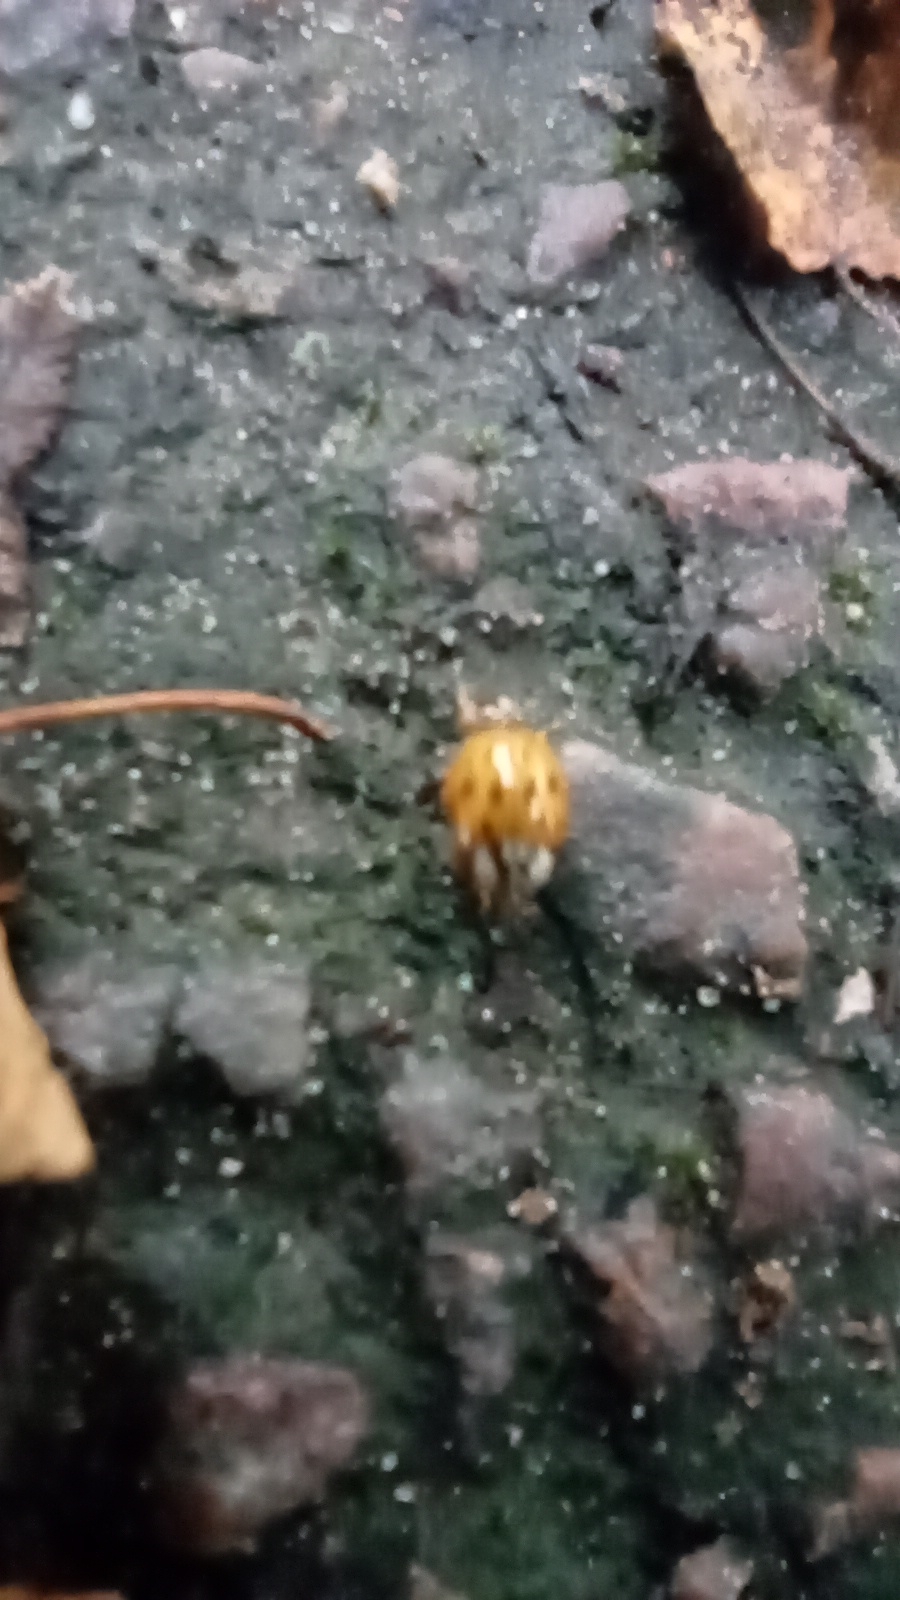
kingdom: Animalia
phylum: Arthropoda
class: Insecta
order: Coleoptera
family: Coccinellidae
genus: Harmonia
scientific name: Harmonia axyridis
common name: Harlequin ladybird
